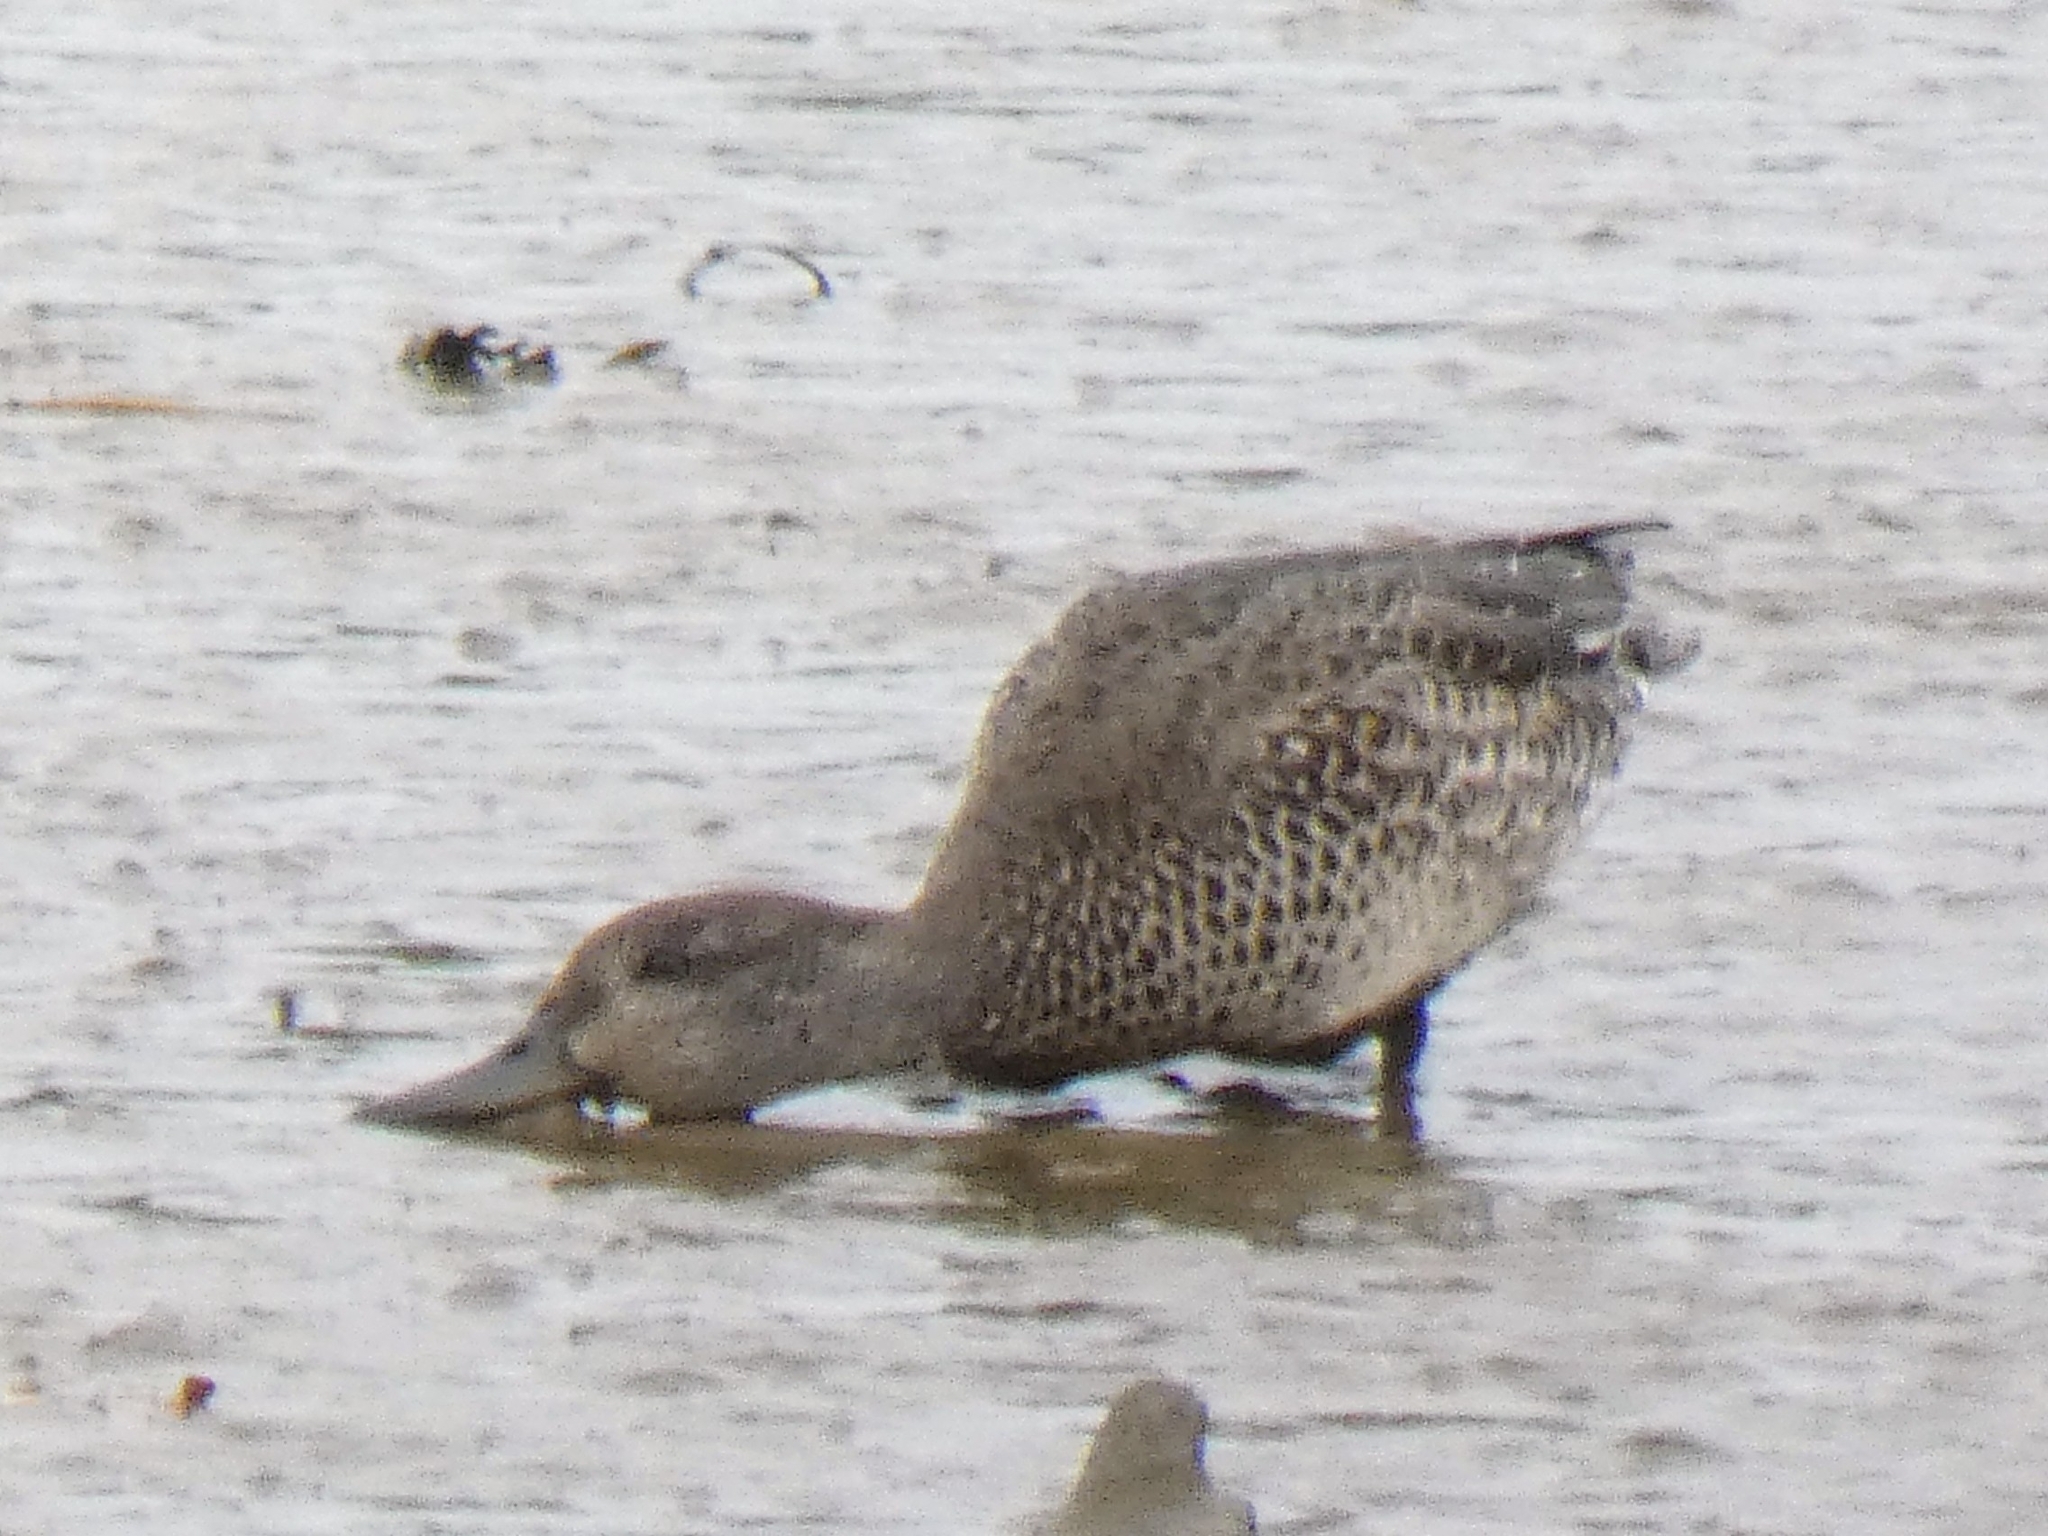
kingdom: Animalia
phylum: Chordata
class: Aves
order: Anseriformes
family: Anatidae
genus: Anas
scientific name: Anas crecca
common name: Eurasian teal
